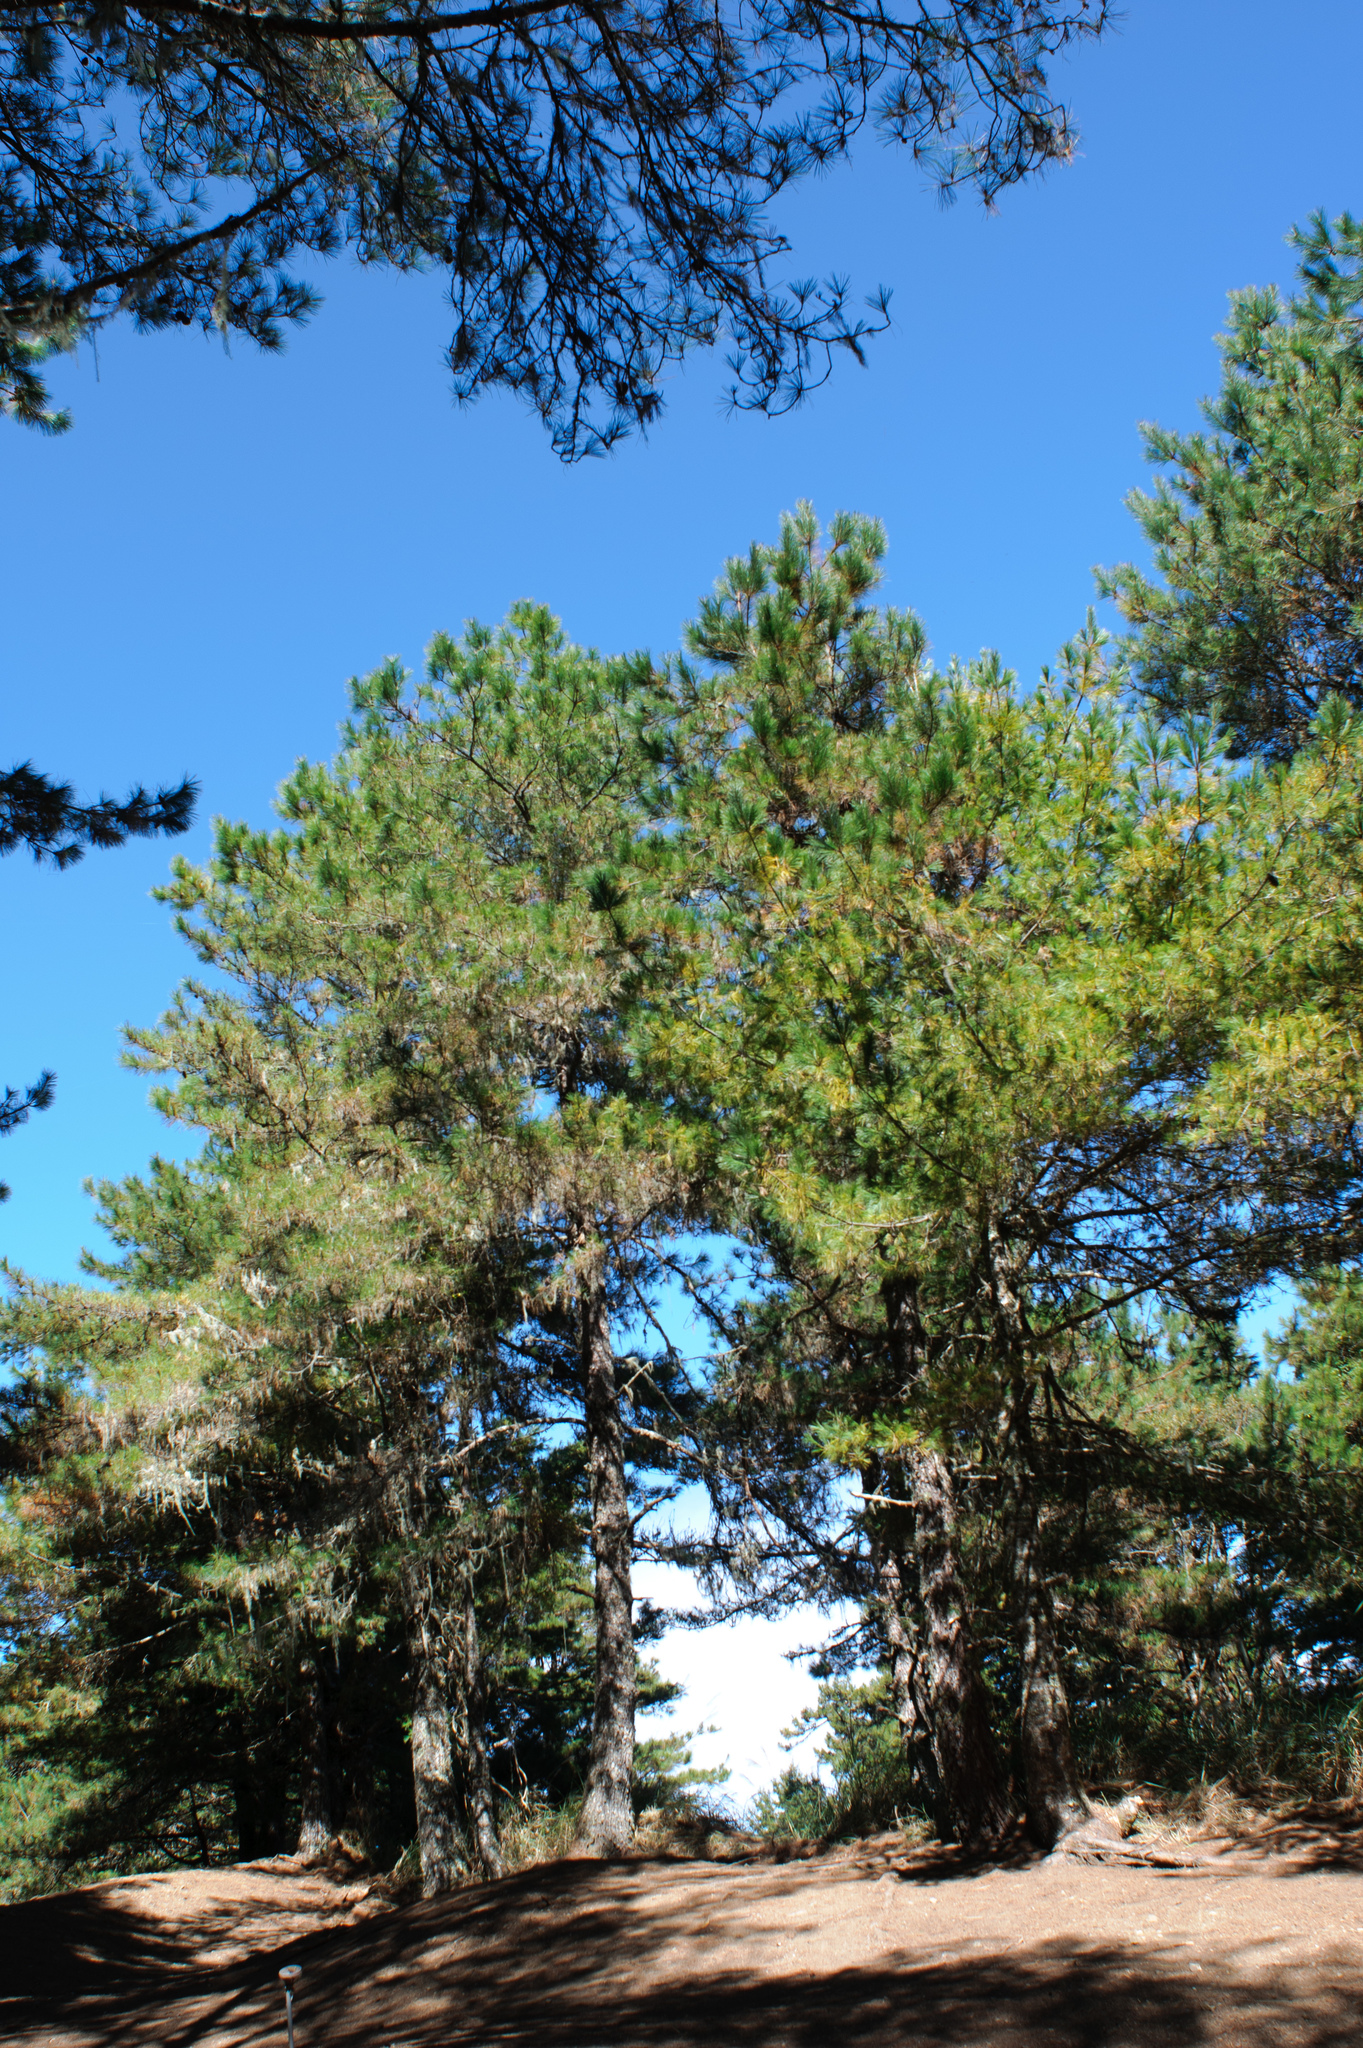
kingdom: Plantae
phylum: Tracheophyta
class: Pinopsida
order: Pinales
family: Pinaceae
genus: Pinus
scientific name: Pinus armandii
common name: Armand's pine
